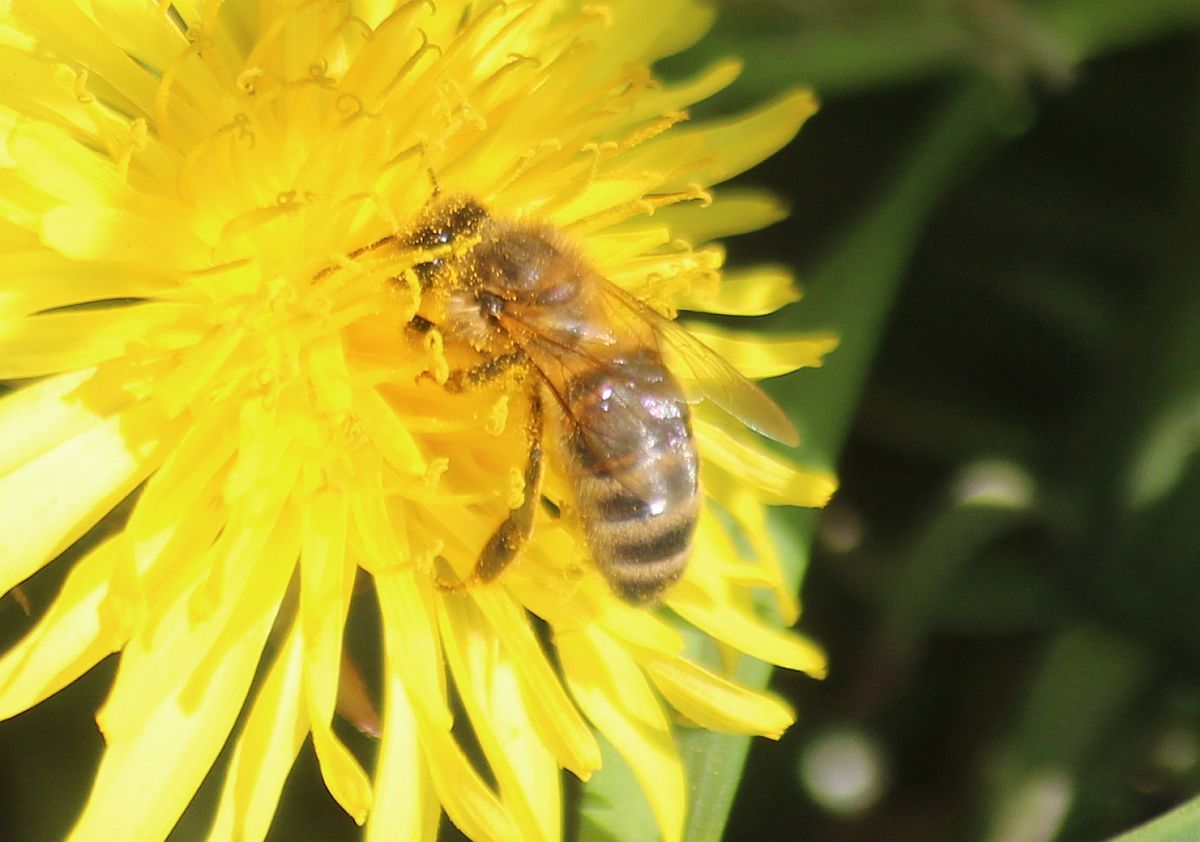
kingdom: Animalia
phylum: Arthropoda
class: Insecta
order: Hymenoptera
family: Apidae
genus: Apis
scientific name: Apis mellifera
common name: Honey bee
